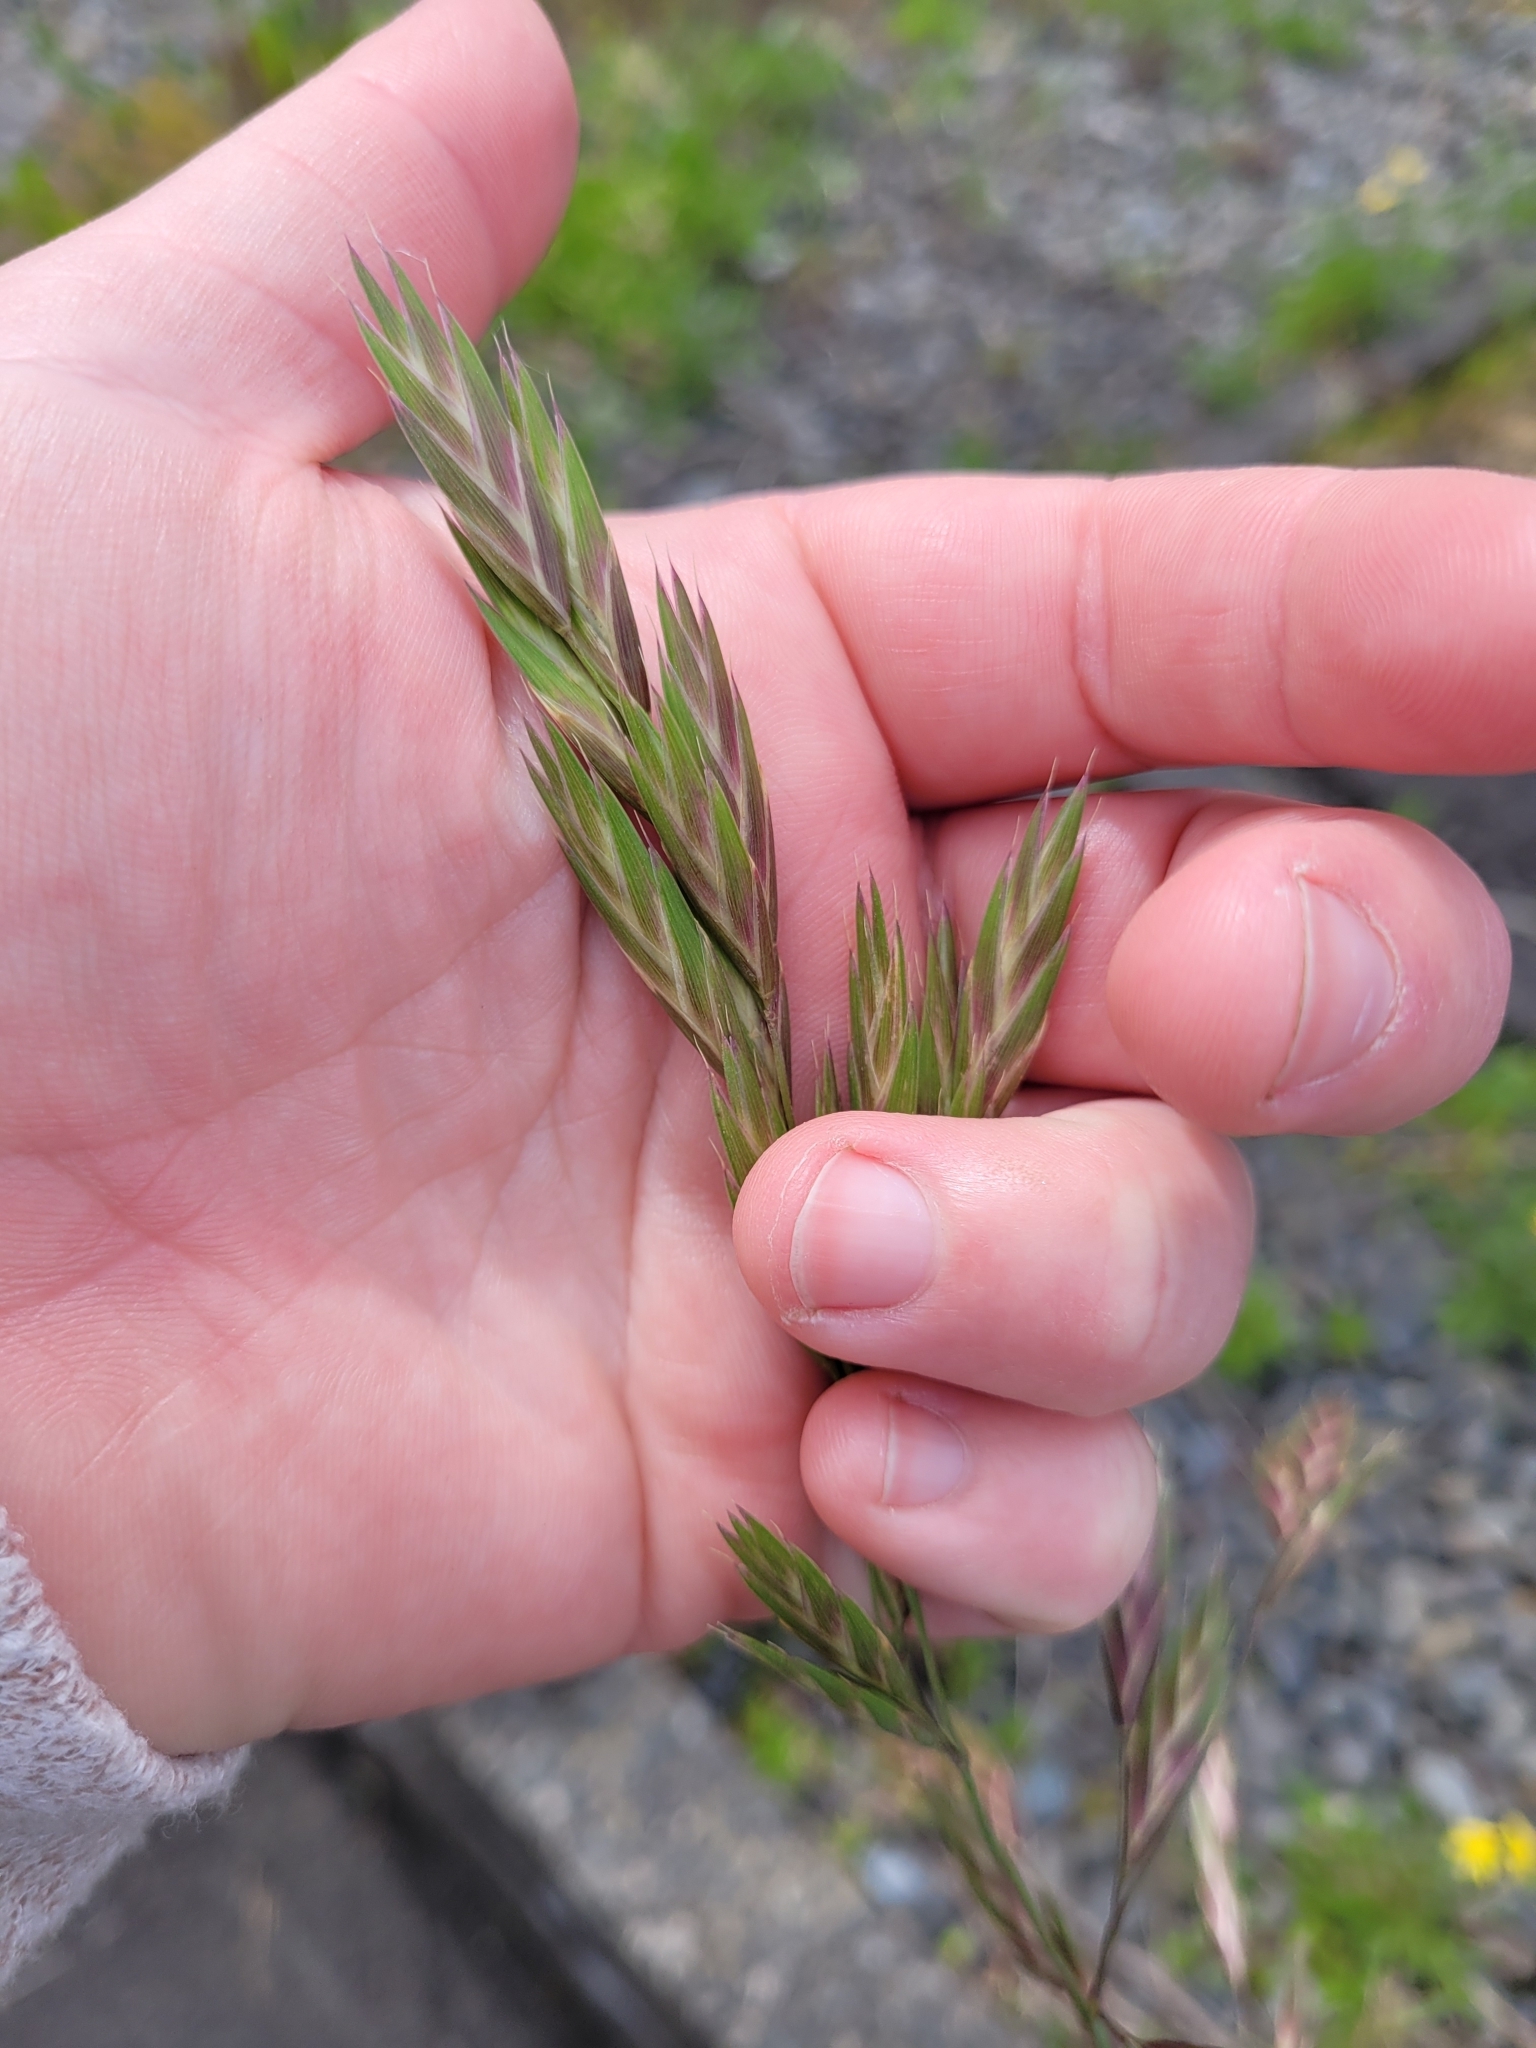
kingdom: Plantae
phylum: Tracheophyta
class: Liliopsida
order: Poales
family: Poaceae
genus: Bromus
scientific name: Bromus catharticus
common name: Rescuegrass
